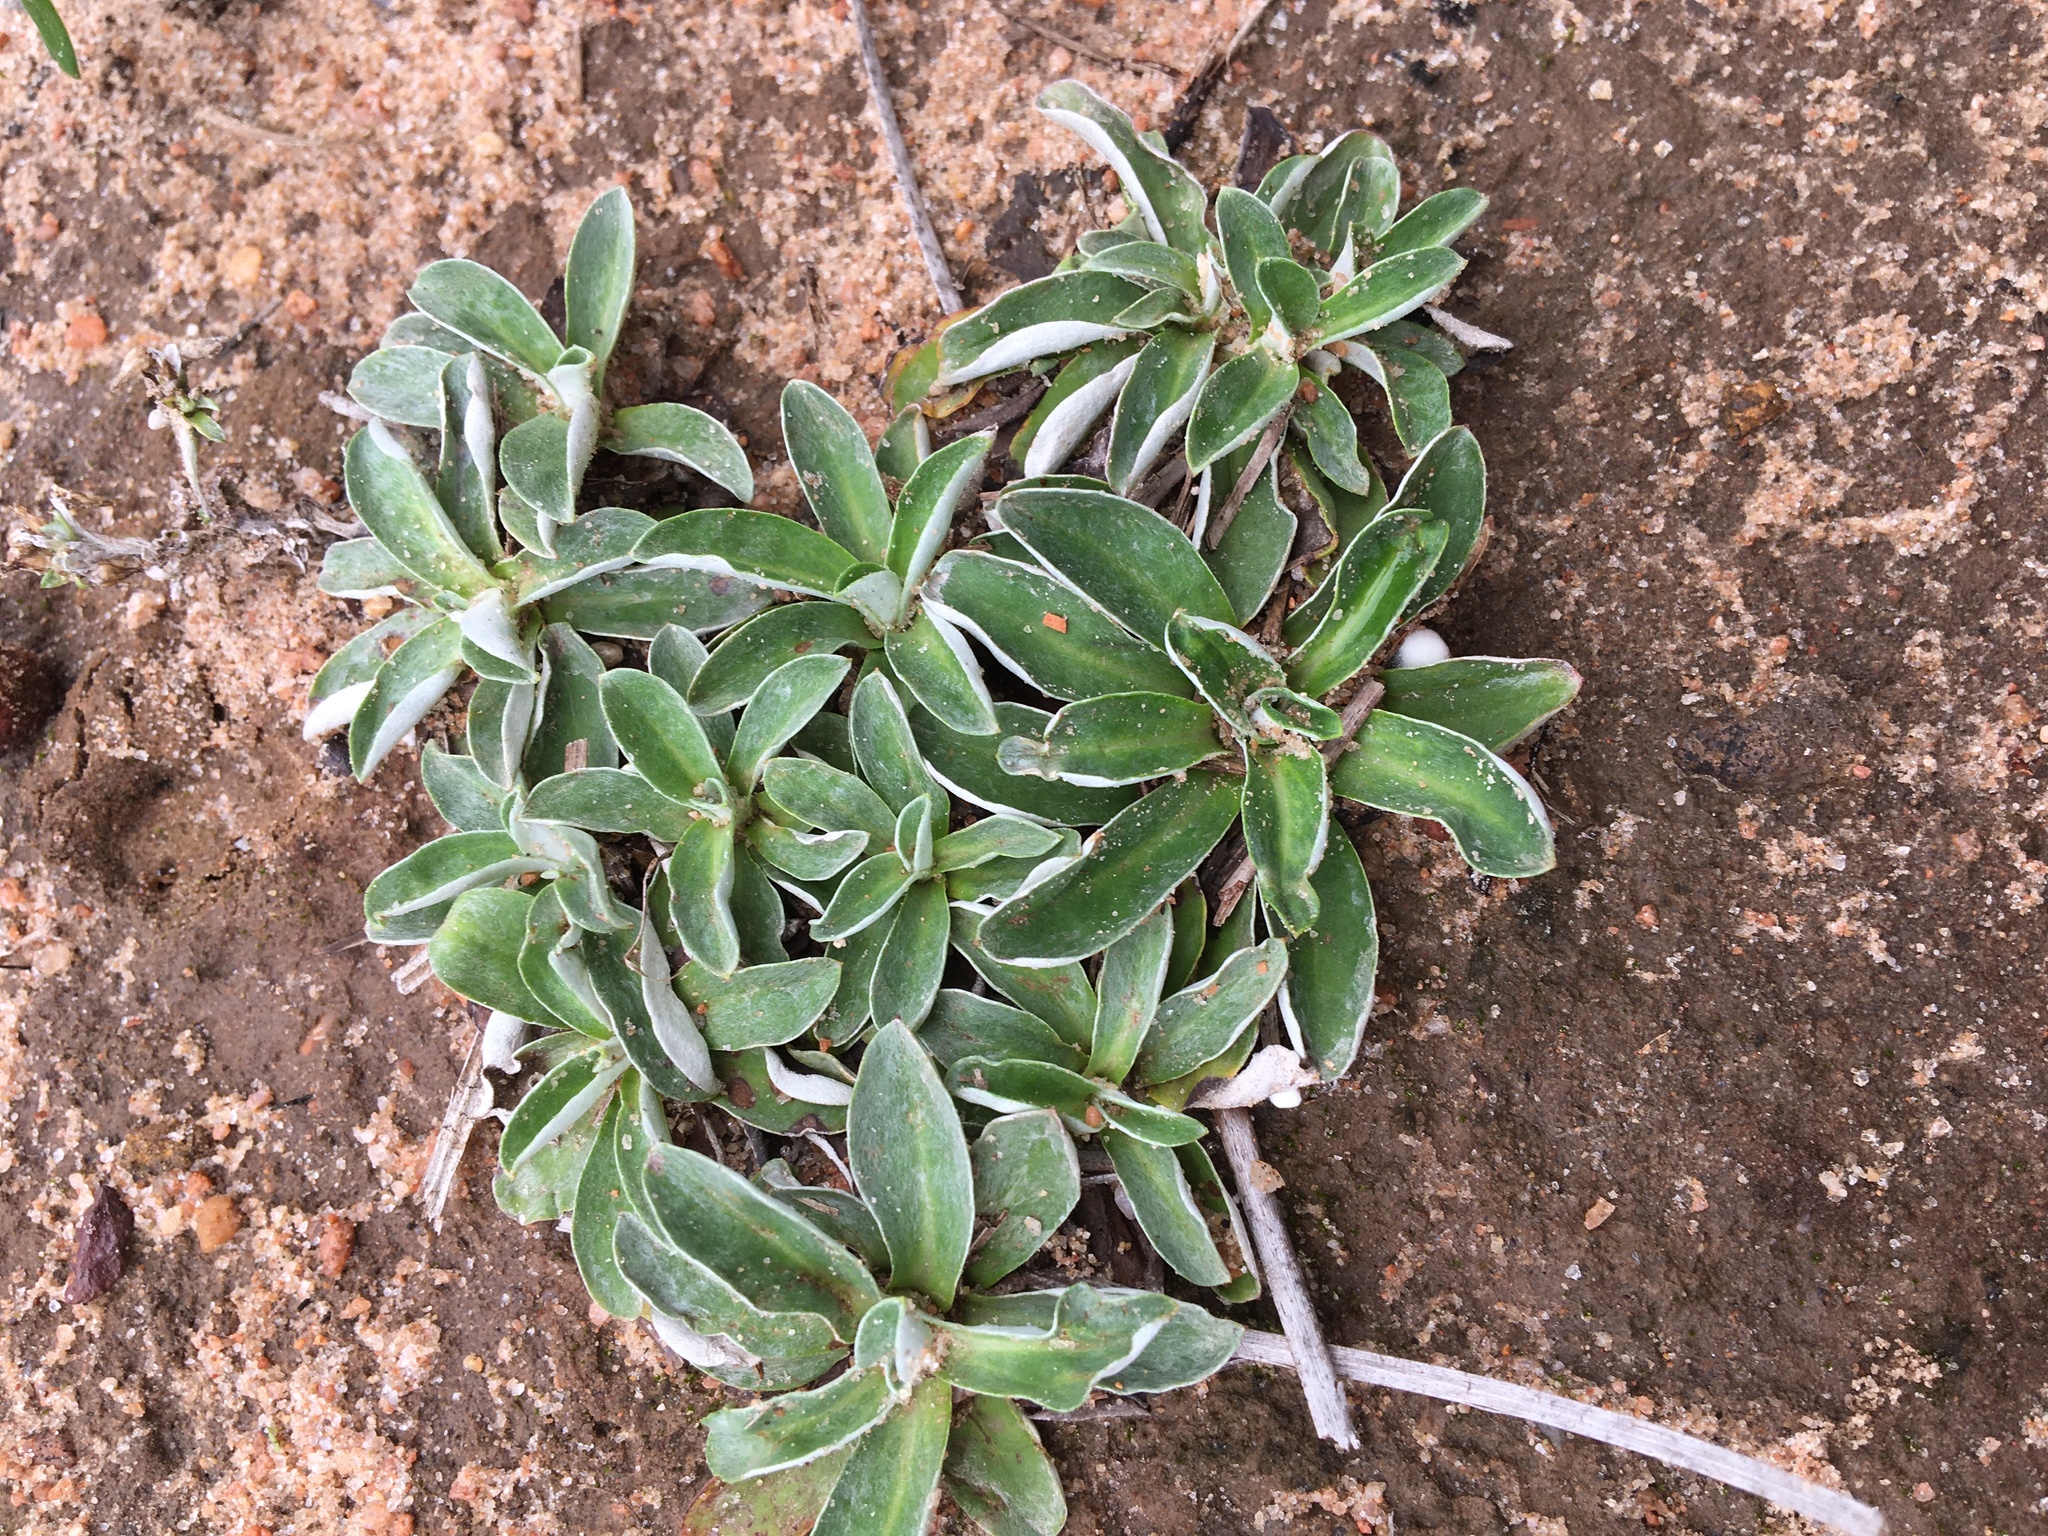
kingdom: Plantae
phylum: Tracheophyta
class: Magnoliopsida
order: Asterales
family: Asteraceae
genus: Chaptalia
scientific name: Chaptalia tomentosa
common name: Woolly sunbonnet
